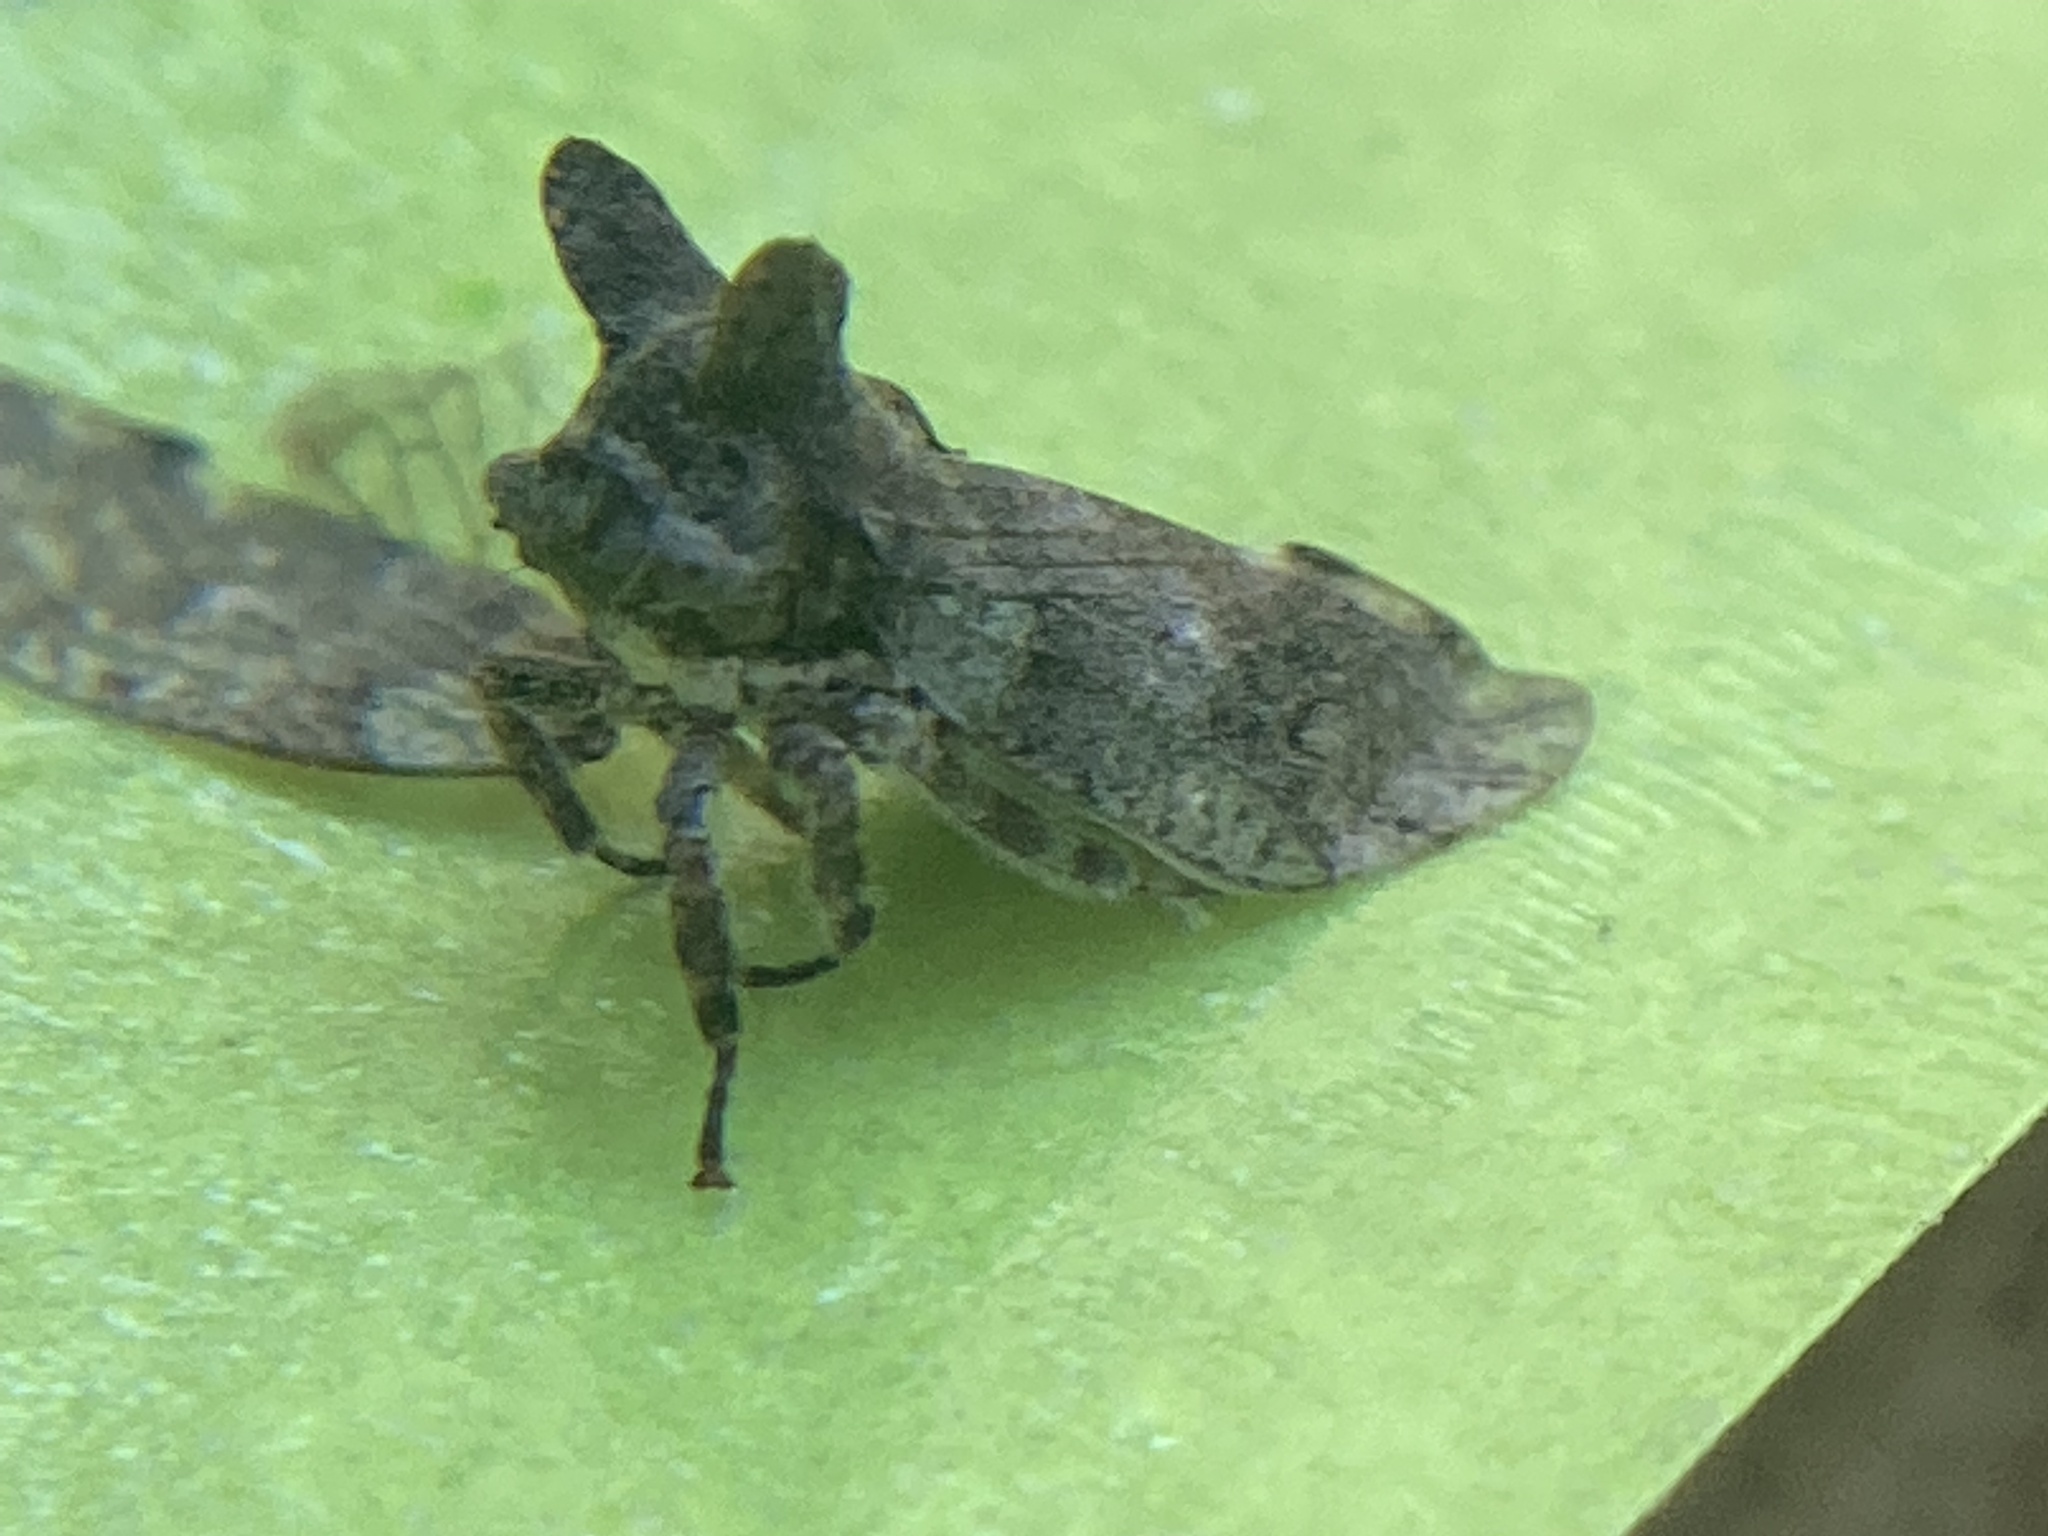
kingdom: Animalia
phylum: Arthropoda
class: Insecta
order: Hemiptera
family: Membracidae
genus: Microcentrus
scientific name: Microcentrus perdita
